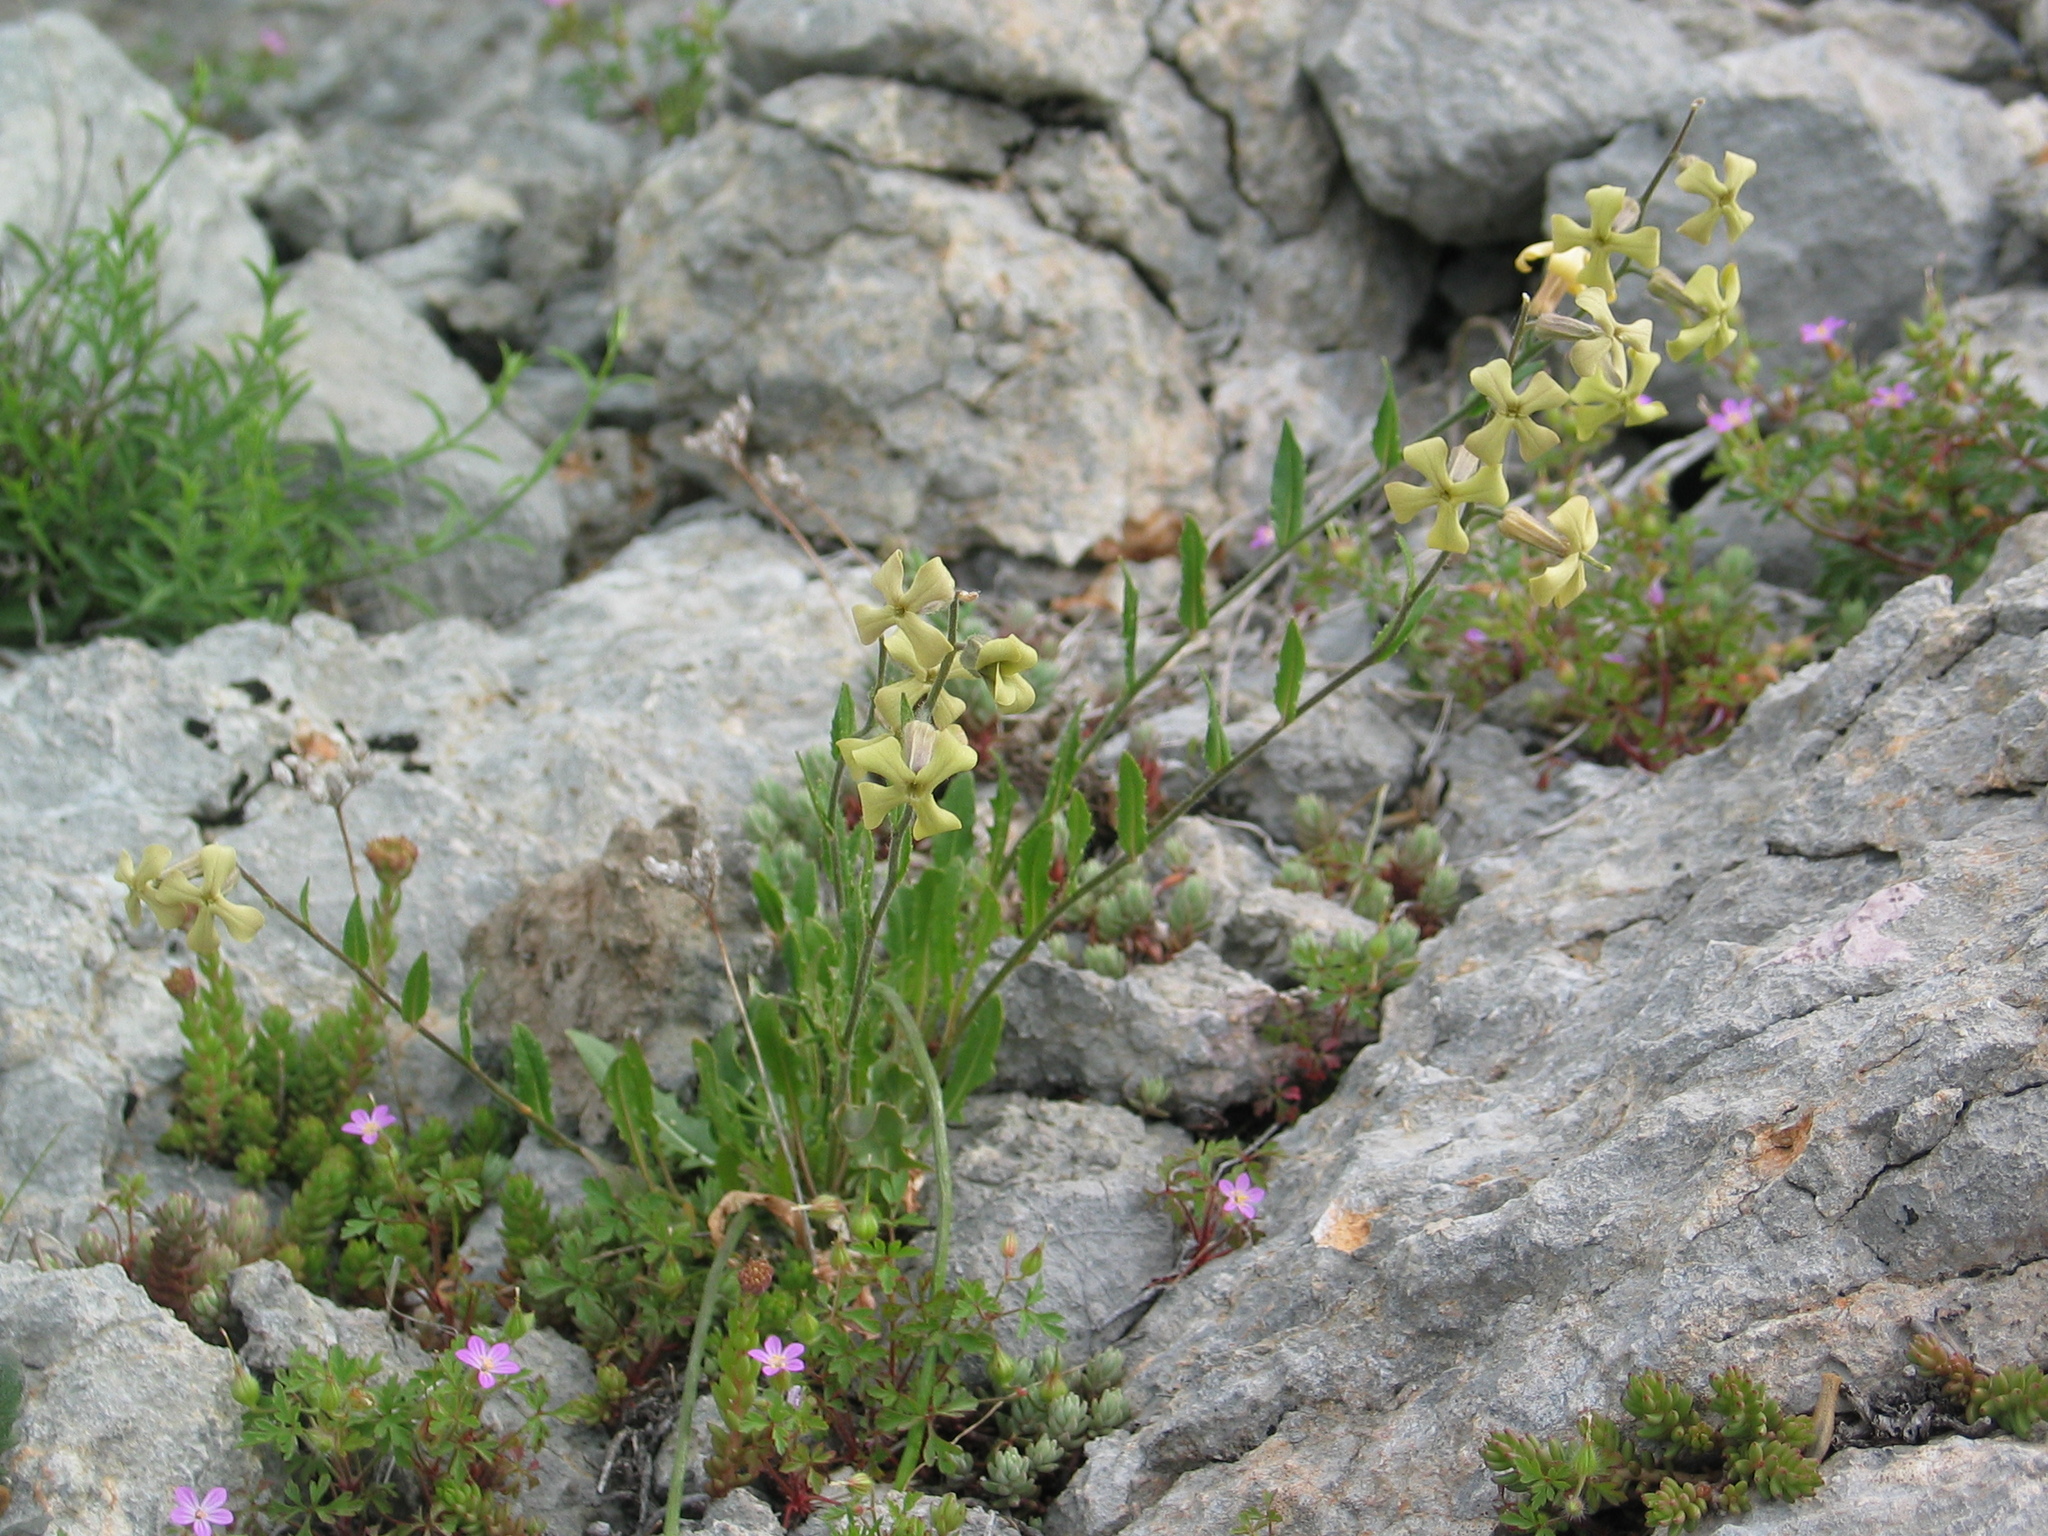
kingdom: Plantae
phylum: Tracheophyta
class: Magnoliopsida
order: Brassicales
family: Brassicaceae
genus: Hesperis
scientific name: Hesperis laciniata
